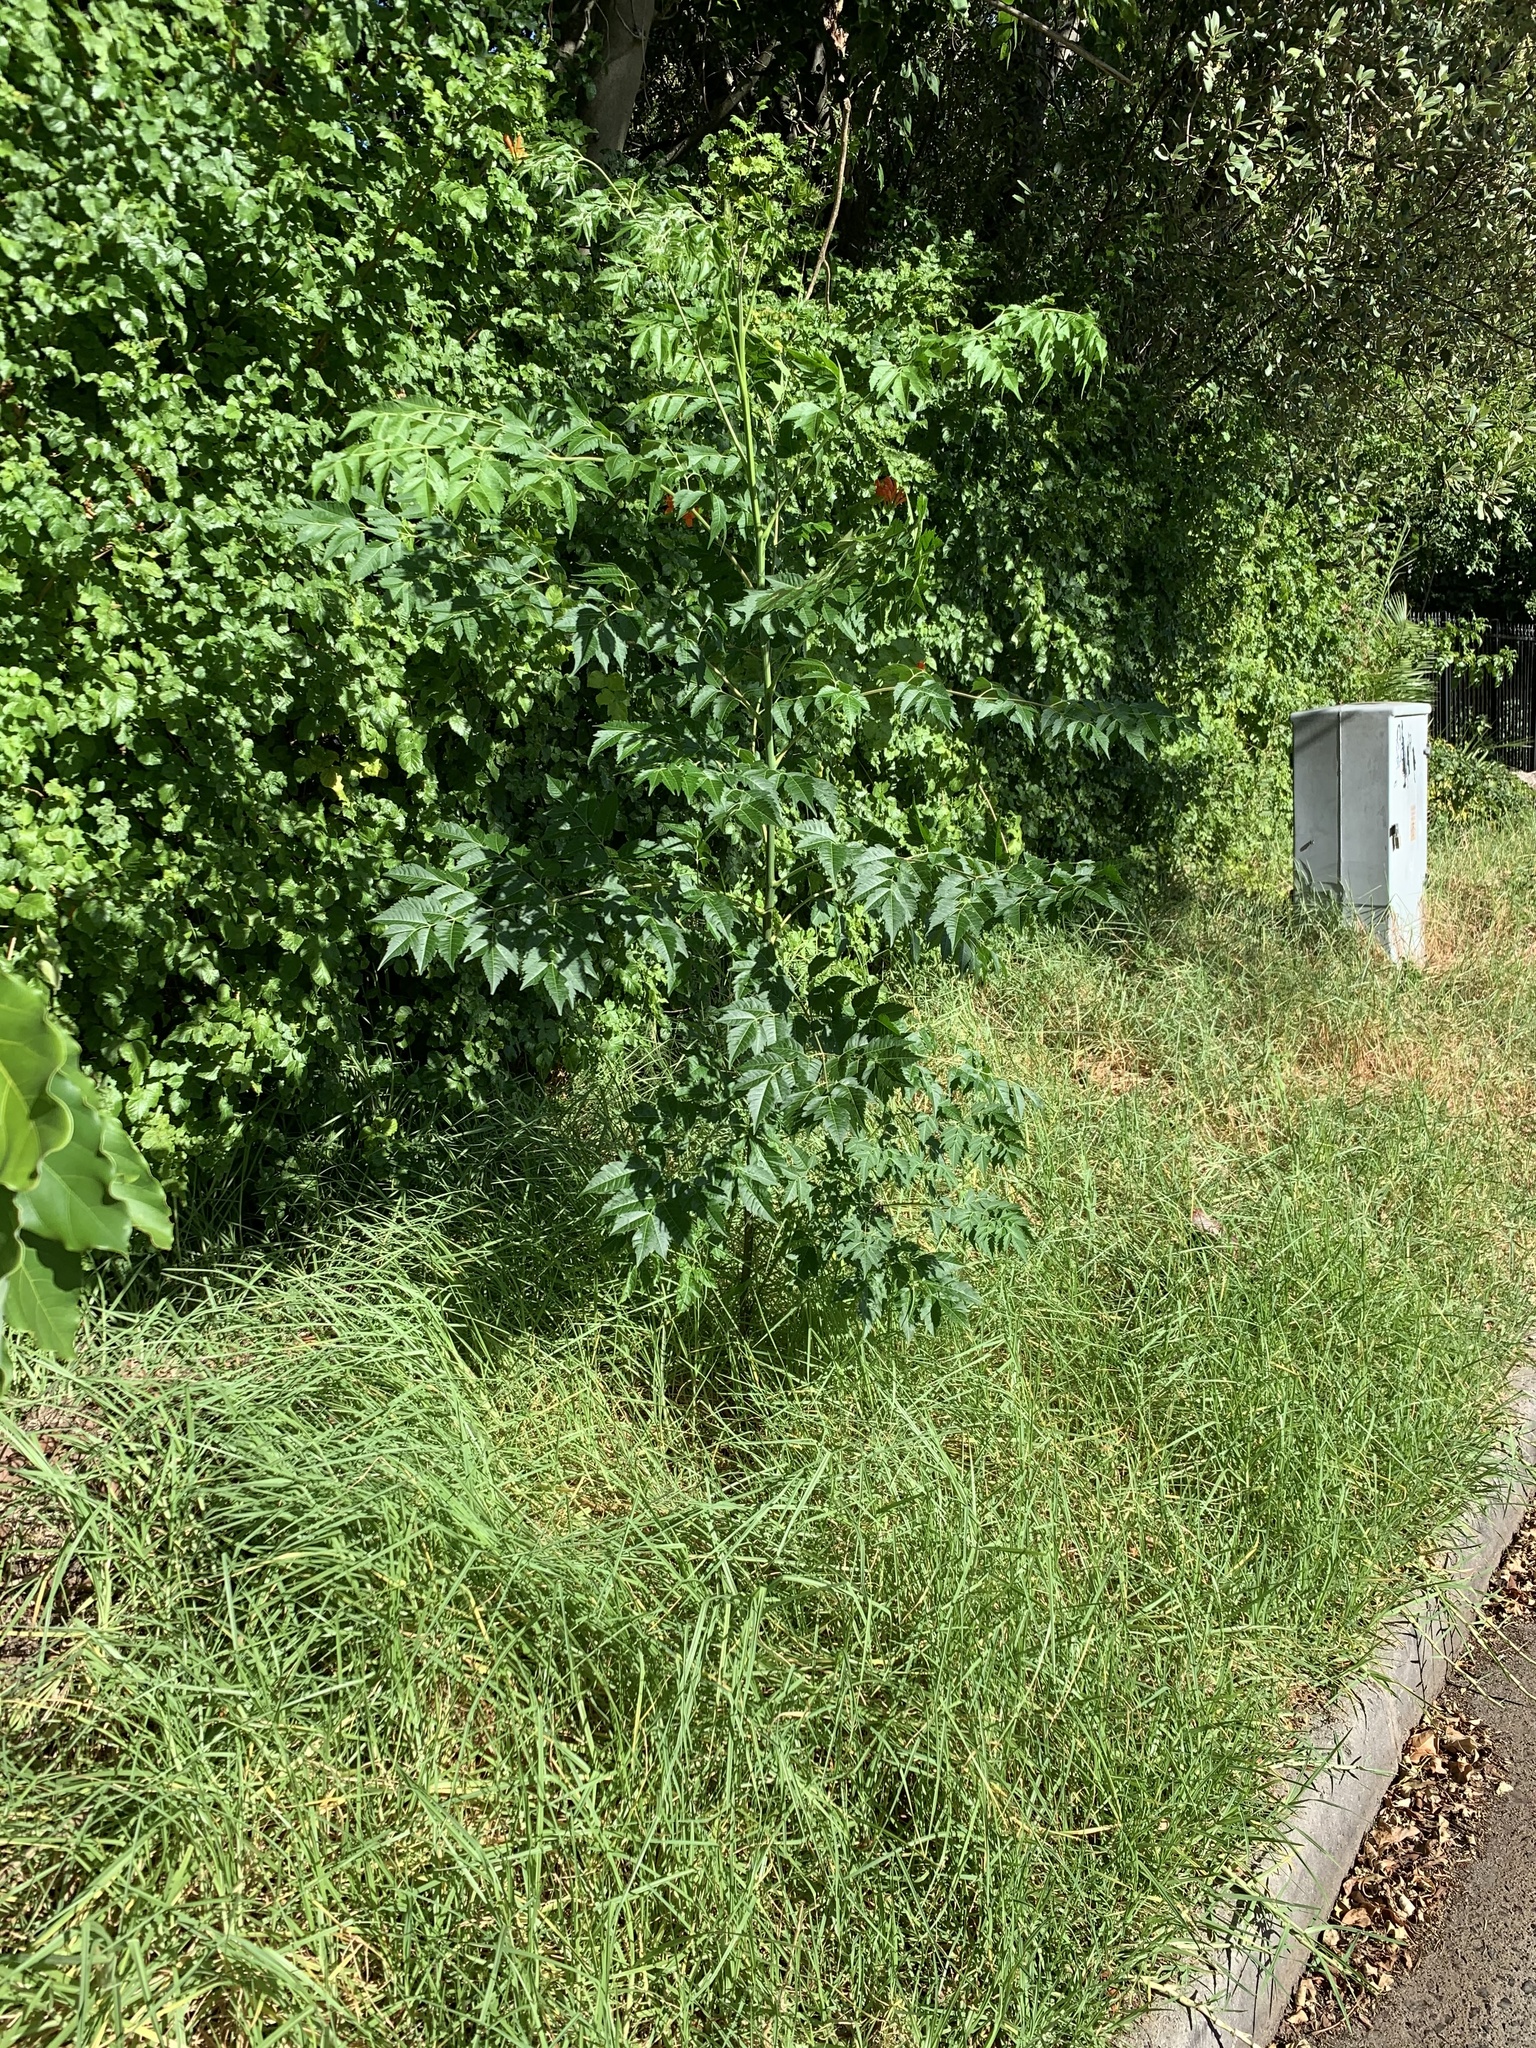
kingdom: Plantae
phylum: Tracheophyta
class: Magnoliopsida
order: Sapindales
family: Meliaceae
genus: Melia
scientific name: Melia azedarach
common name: Chinaberrytree
